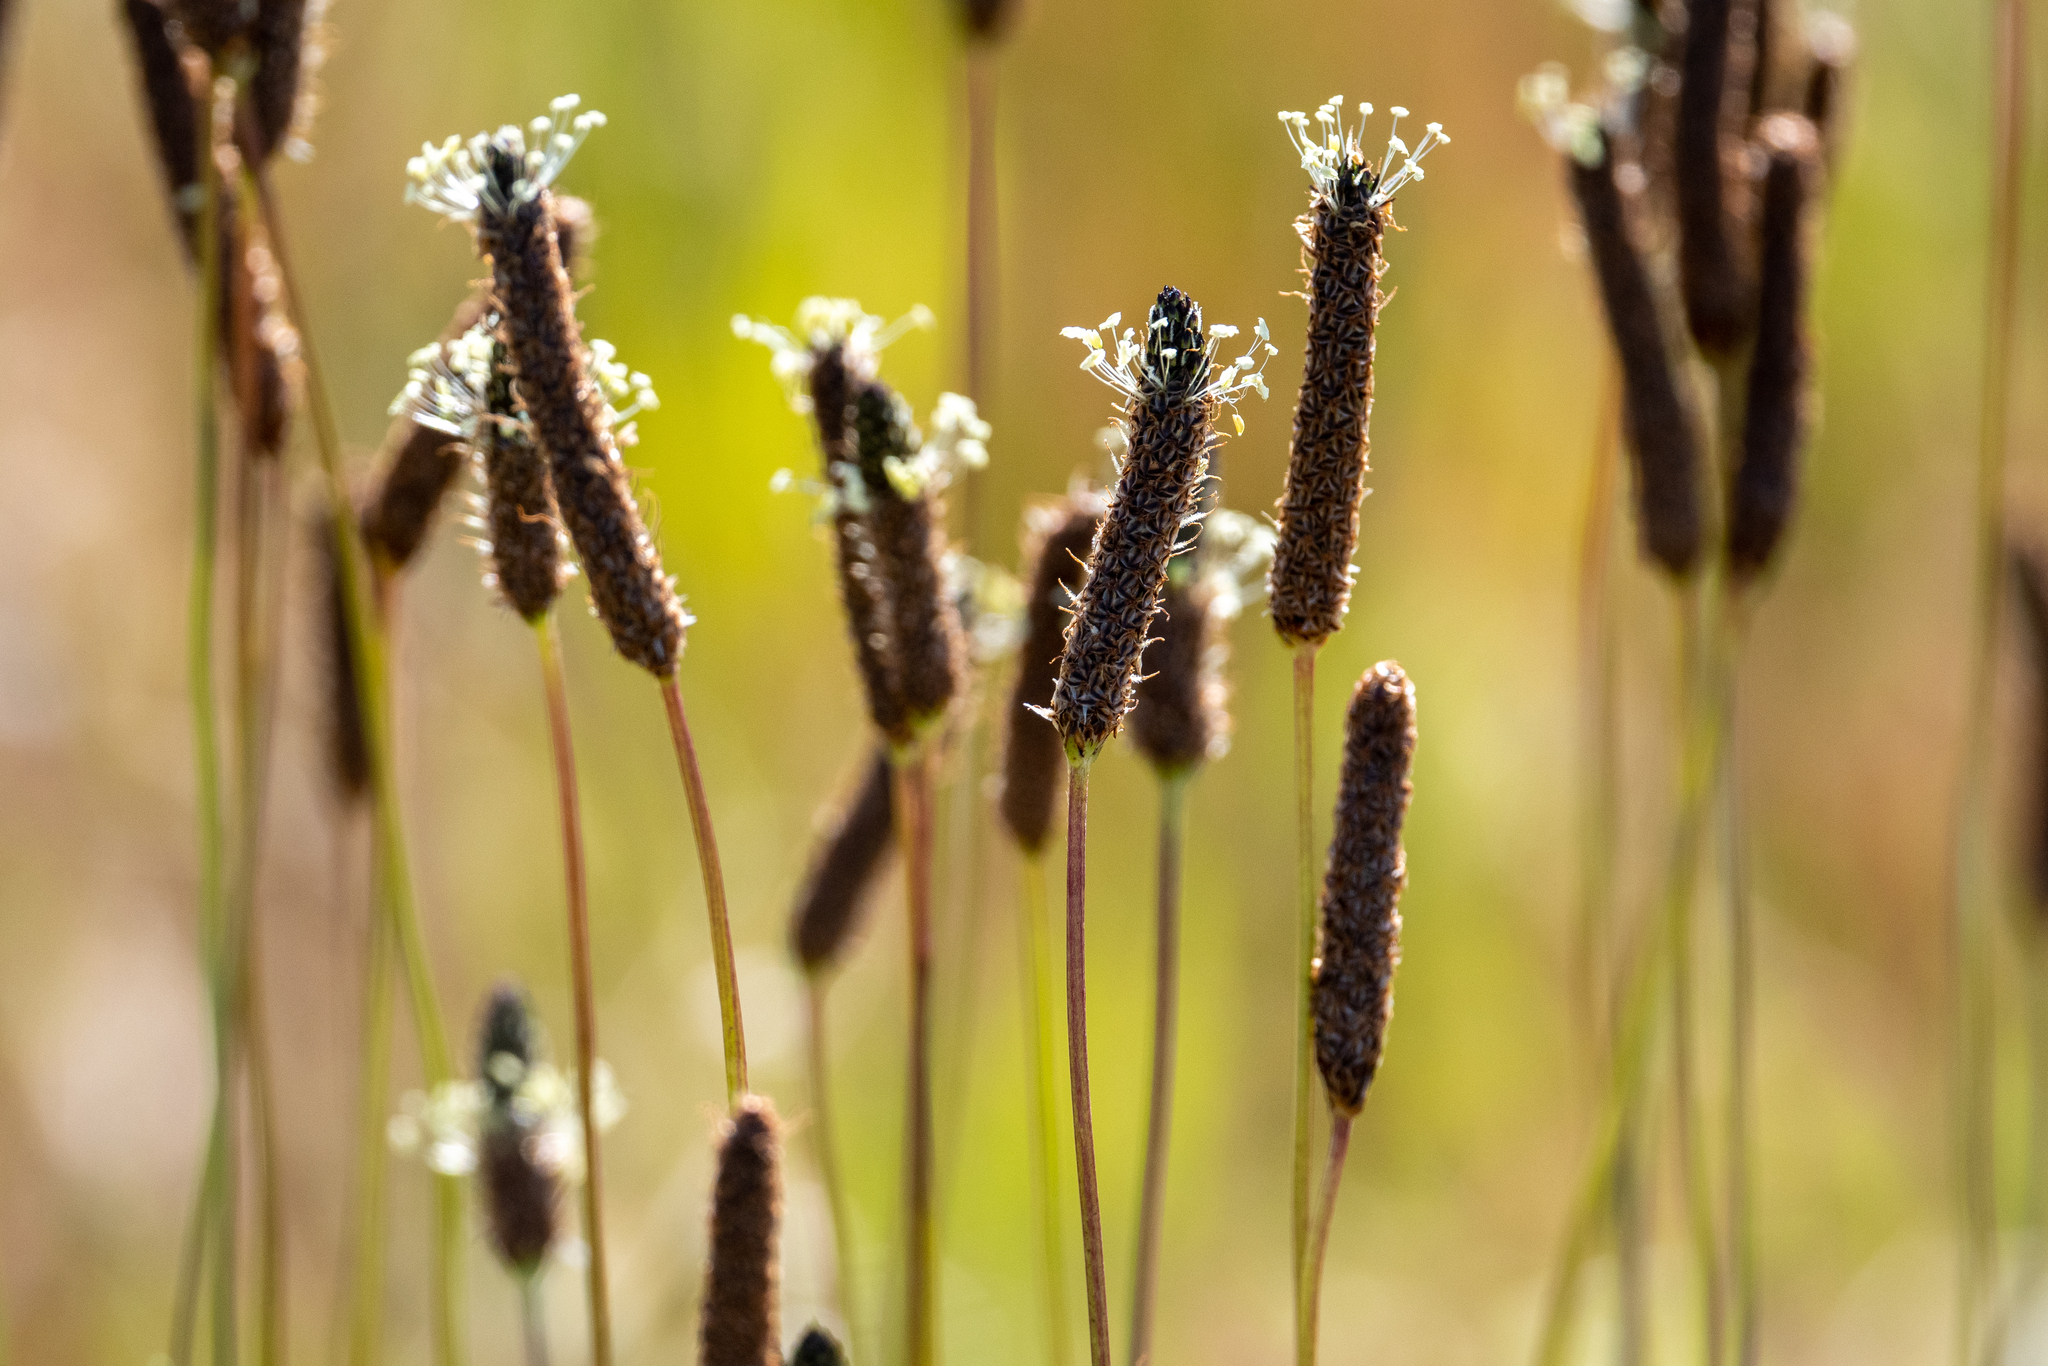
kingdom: Plantae
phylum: Tracheophyta
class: Magnoliopsida
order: Lamiales
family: Plantaginaceae
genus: Plantago
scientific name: Plantago lanceolata
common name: Ribwort plantain
